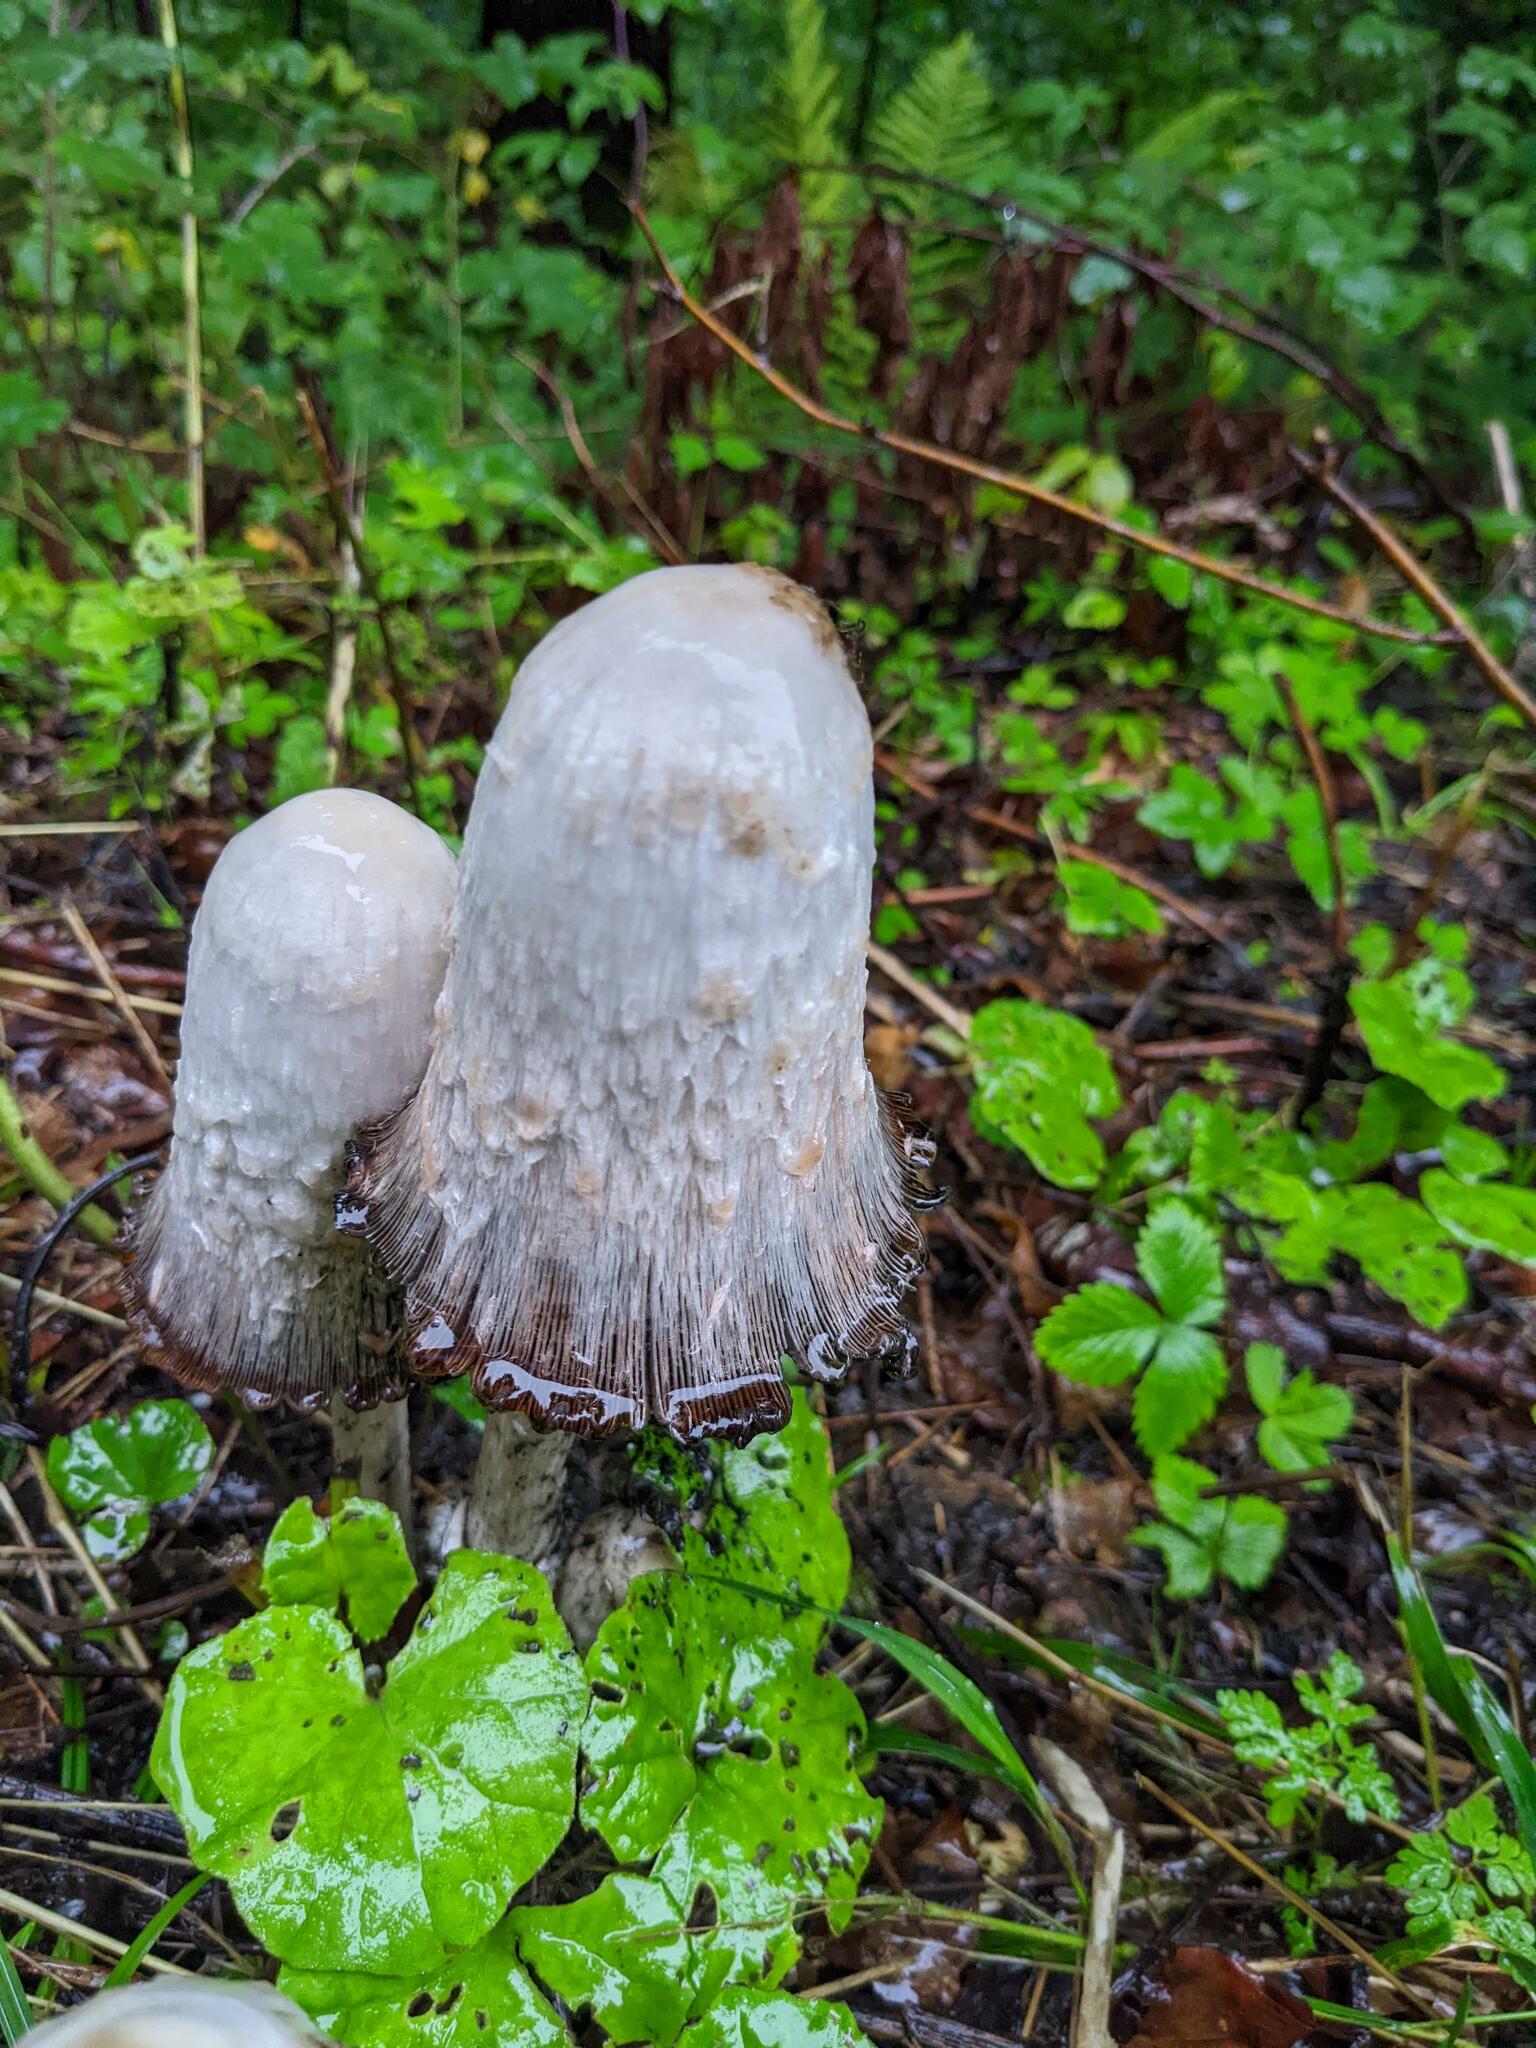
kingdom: Fungi
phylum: Basidiomycota
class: Agaricomycetes
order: Agaricales
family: Agaricaceae
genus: Coprinus
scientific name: Coprinus comatus
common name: Lawyer's wig
